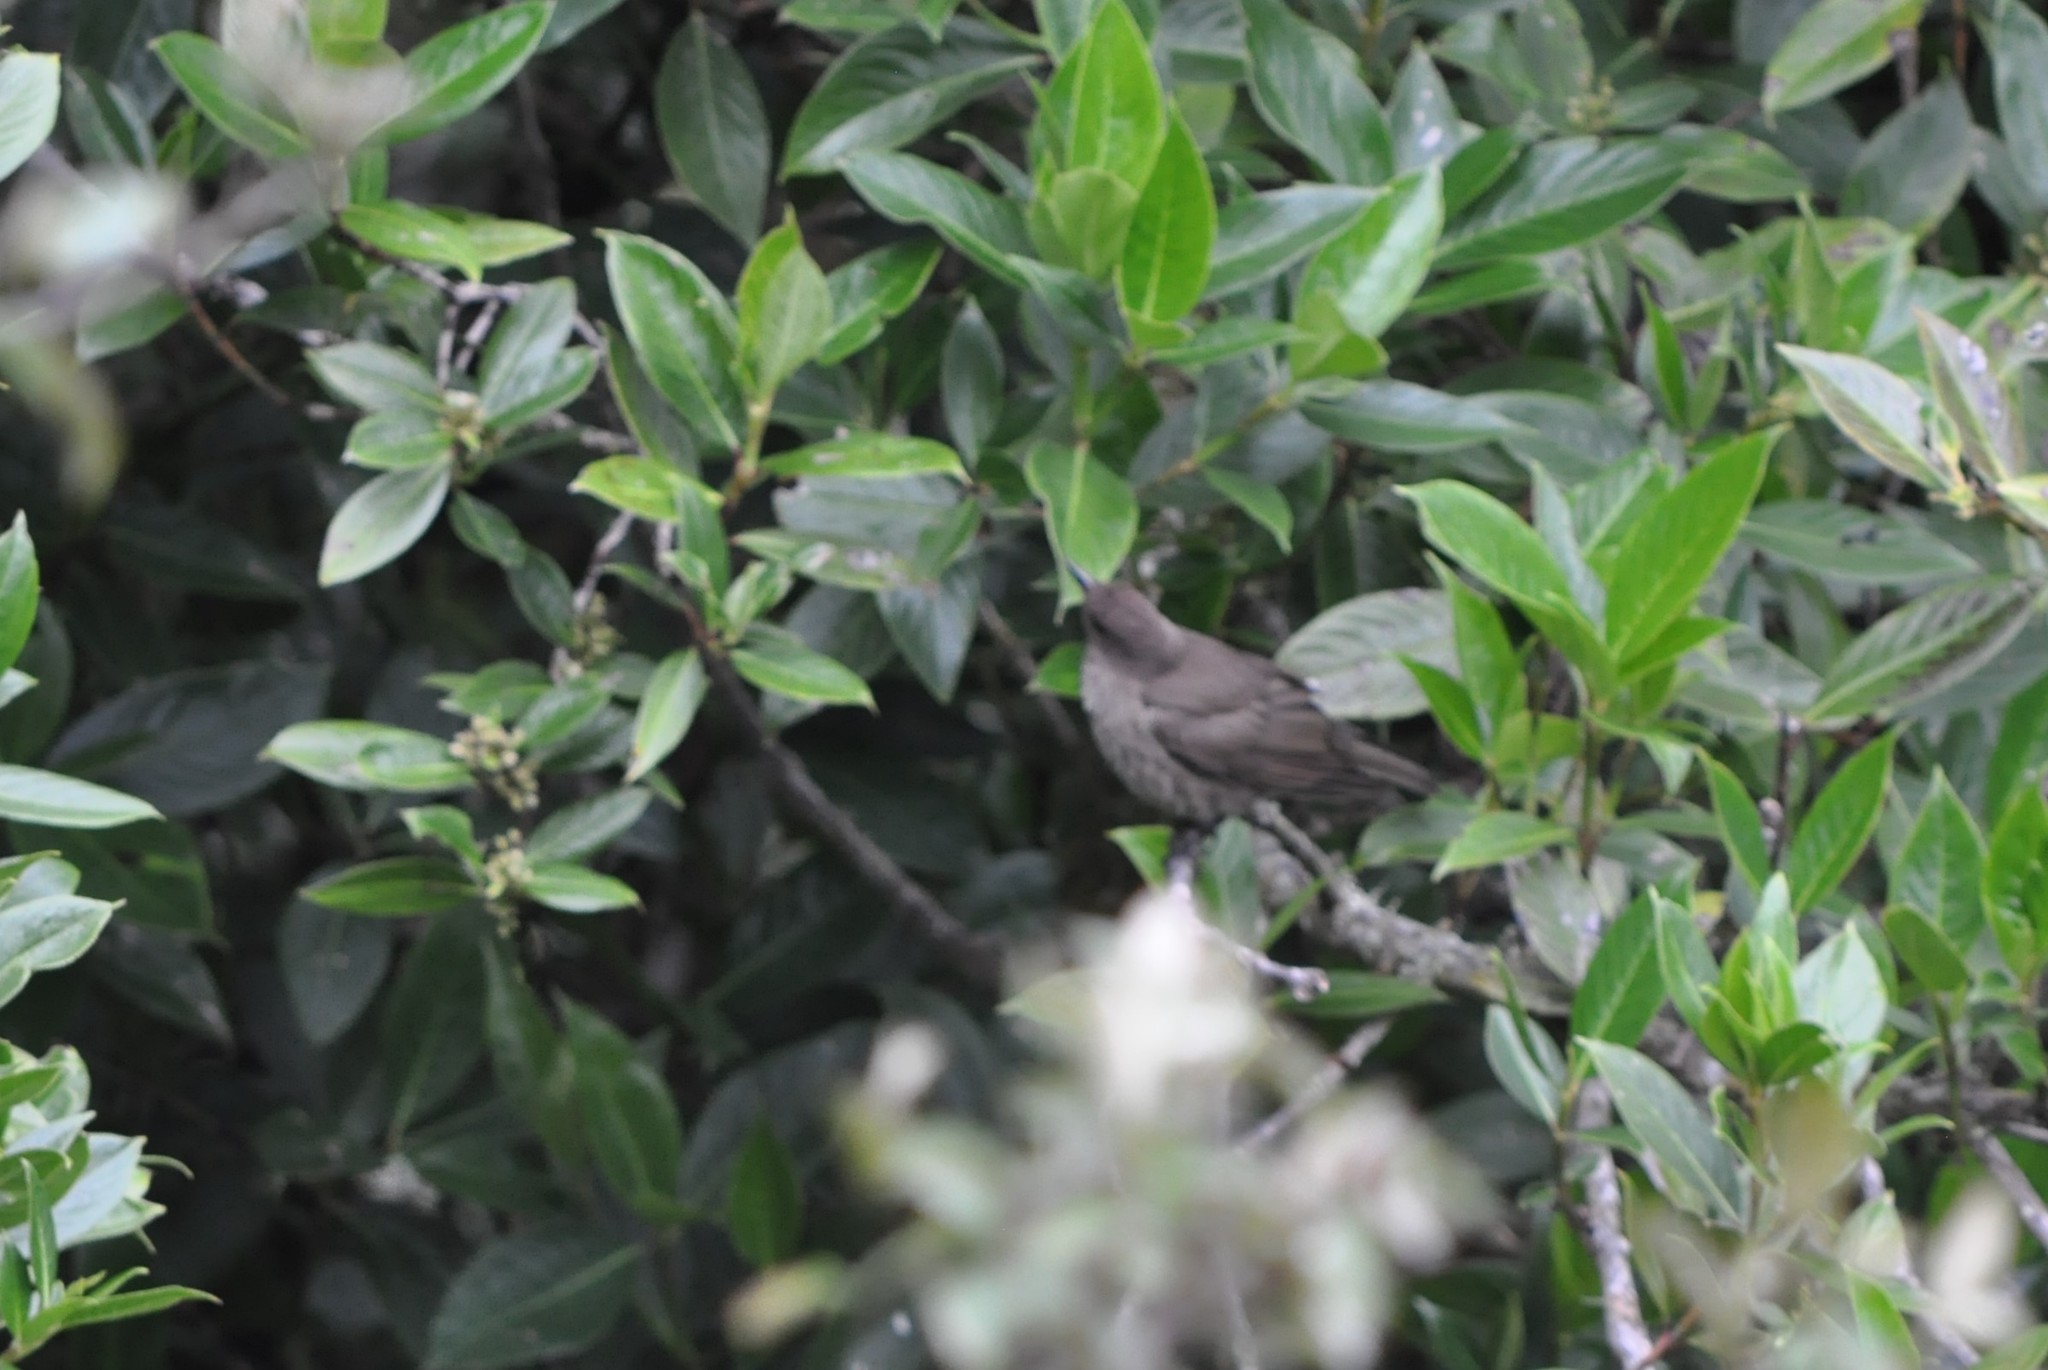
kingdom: Animalia
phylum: Chordata
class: Aves
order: Passeriformes
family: Turdidae
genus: Turdus
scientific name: Turdus plebejus
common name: Mountain thrush
